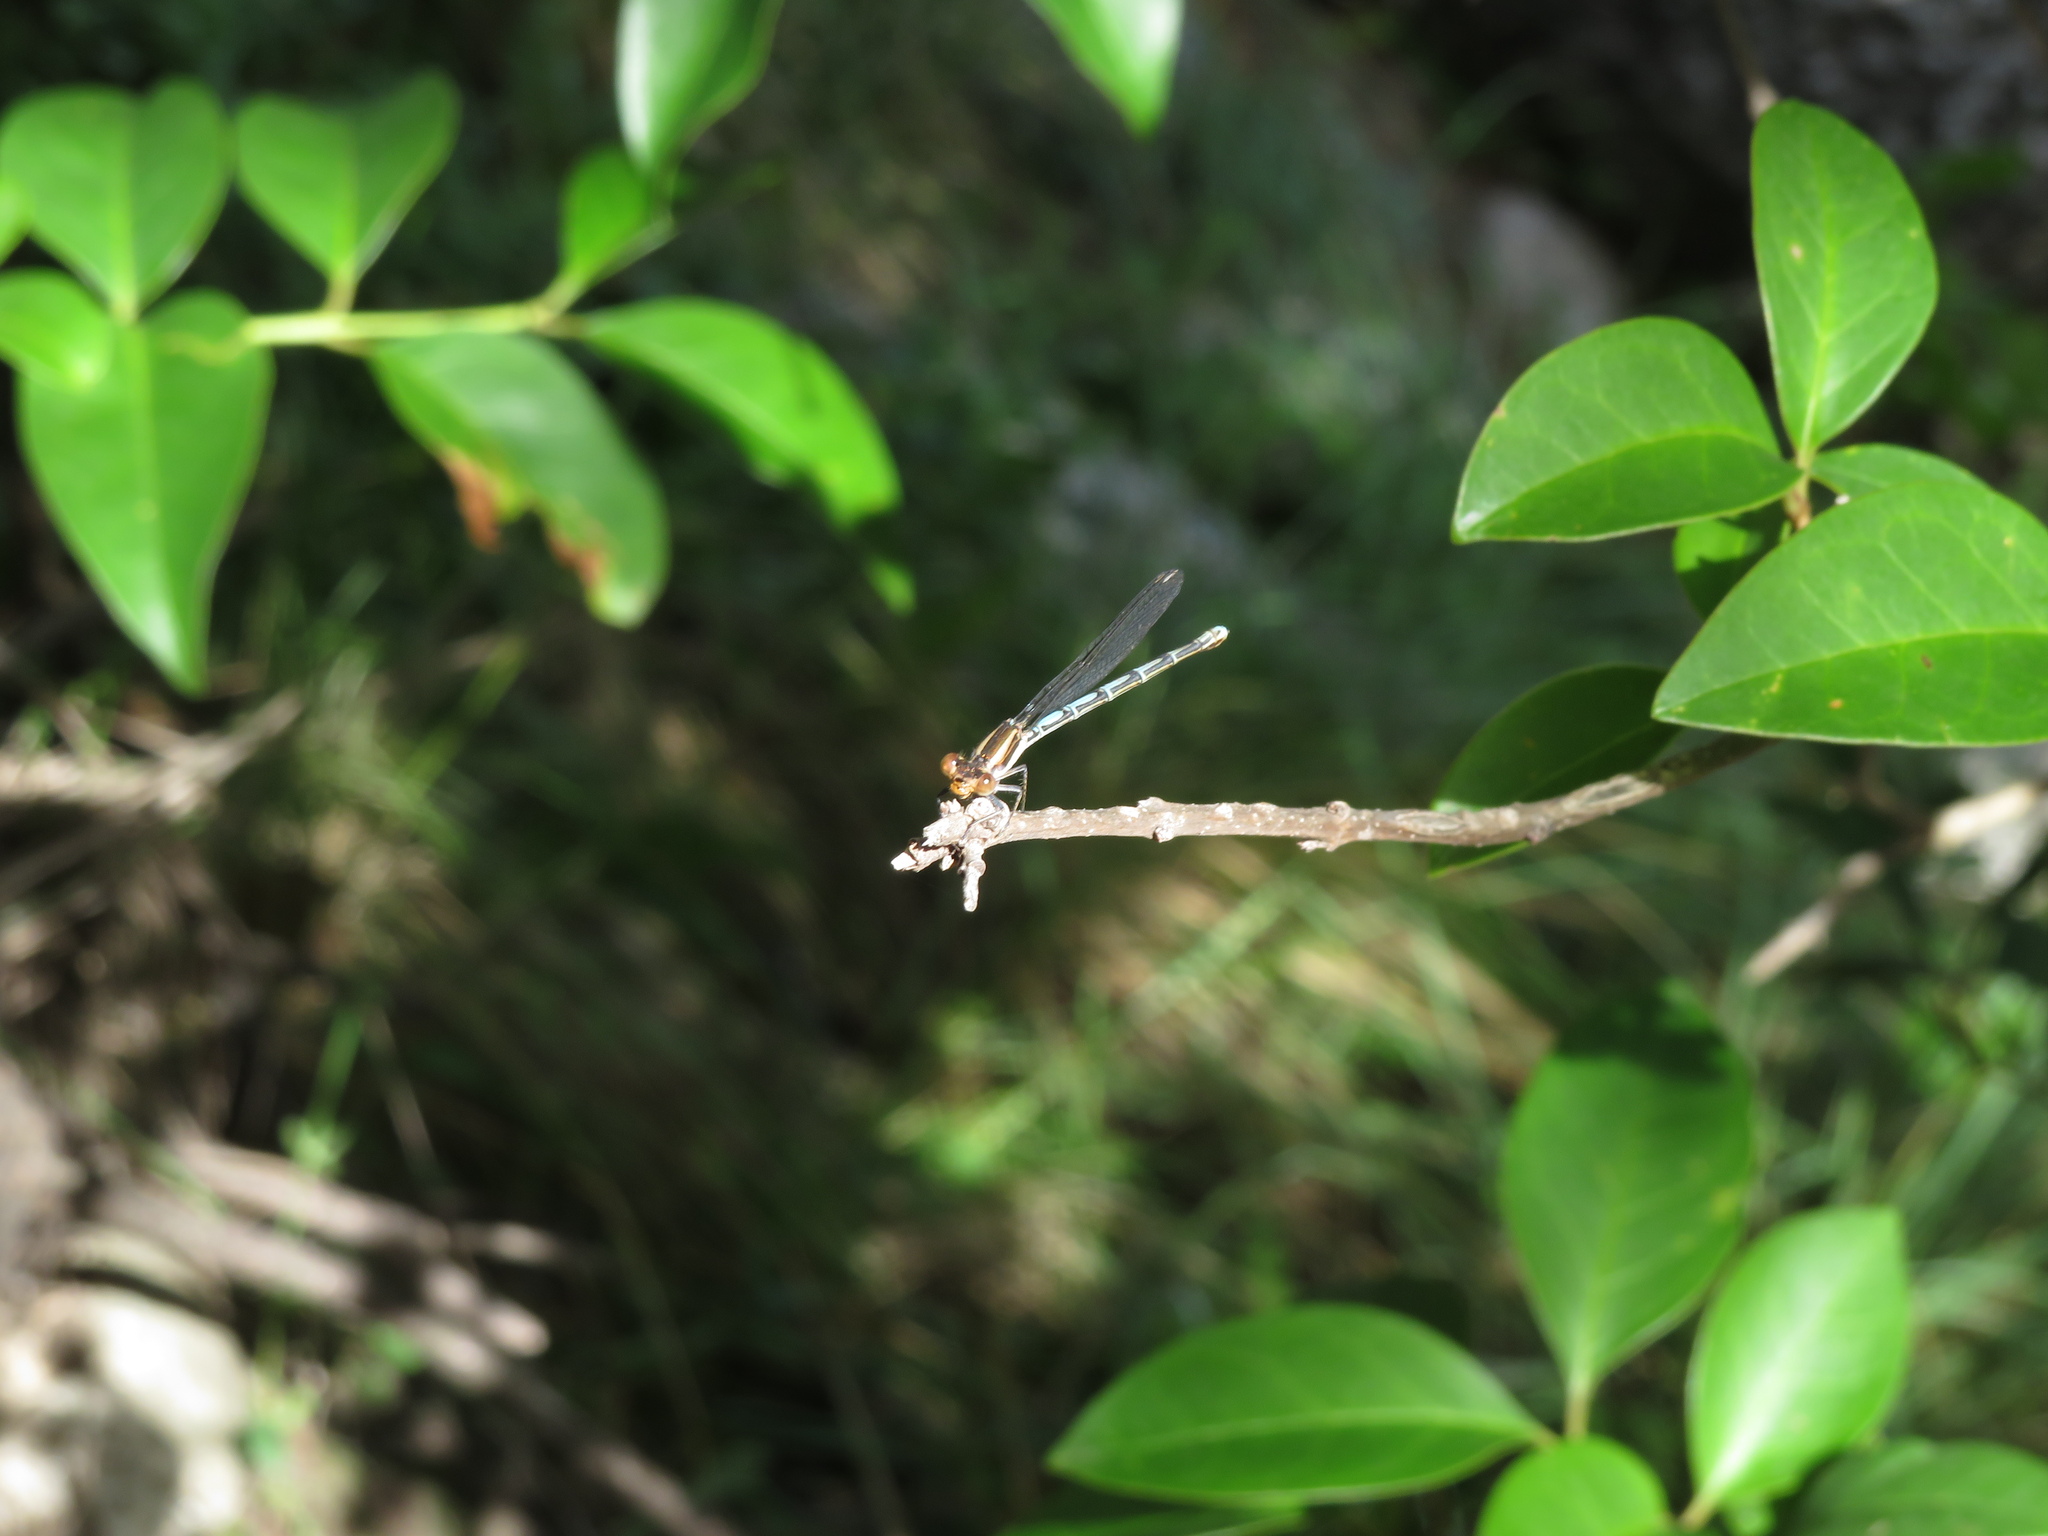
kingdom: Animalia
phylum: Arthropoda
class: Insecta
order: Odonata
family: Coenagrionidae
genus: Argia
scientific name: Argia joergenseni
